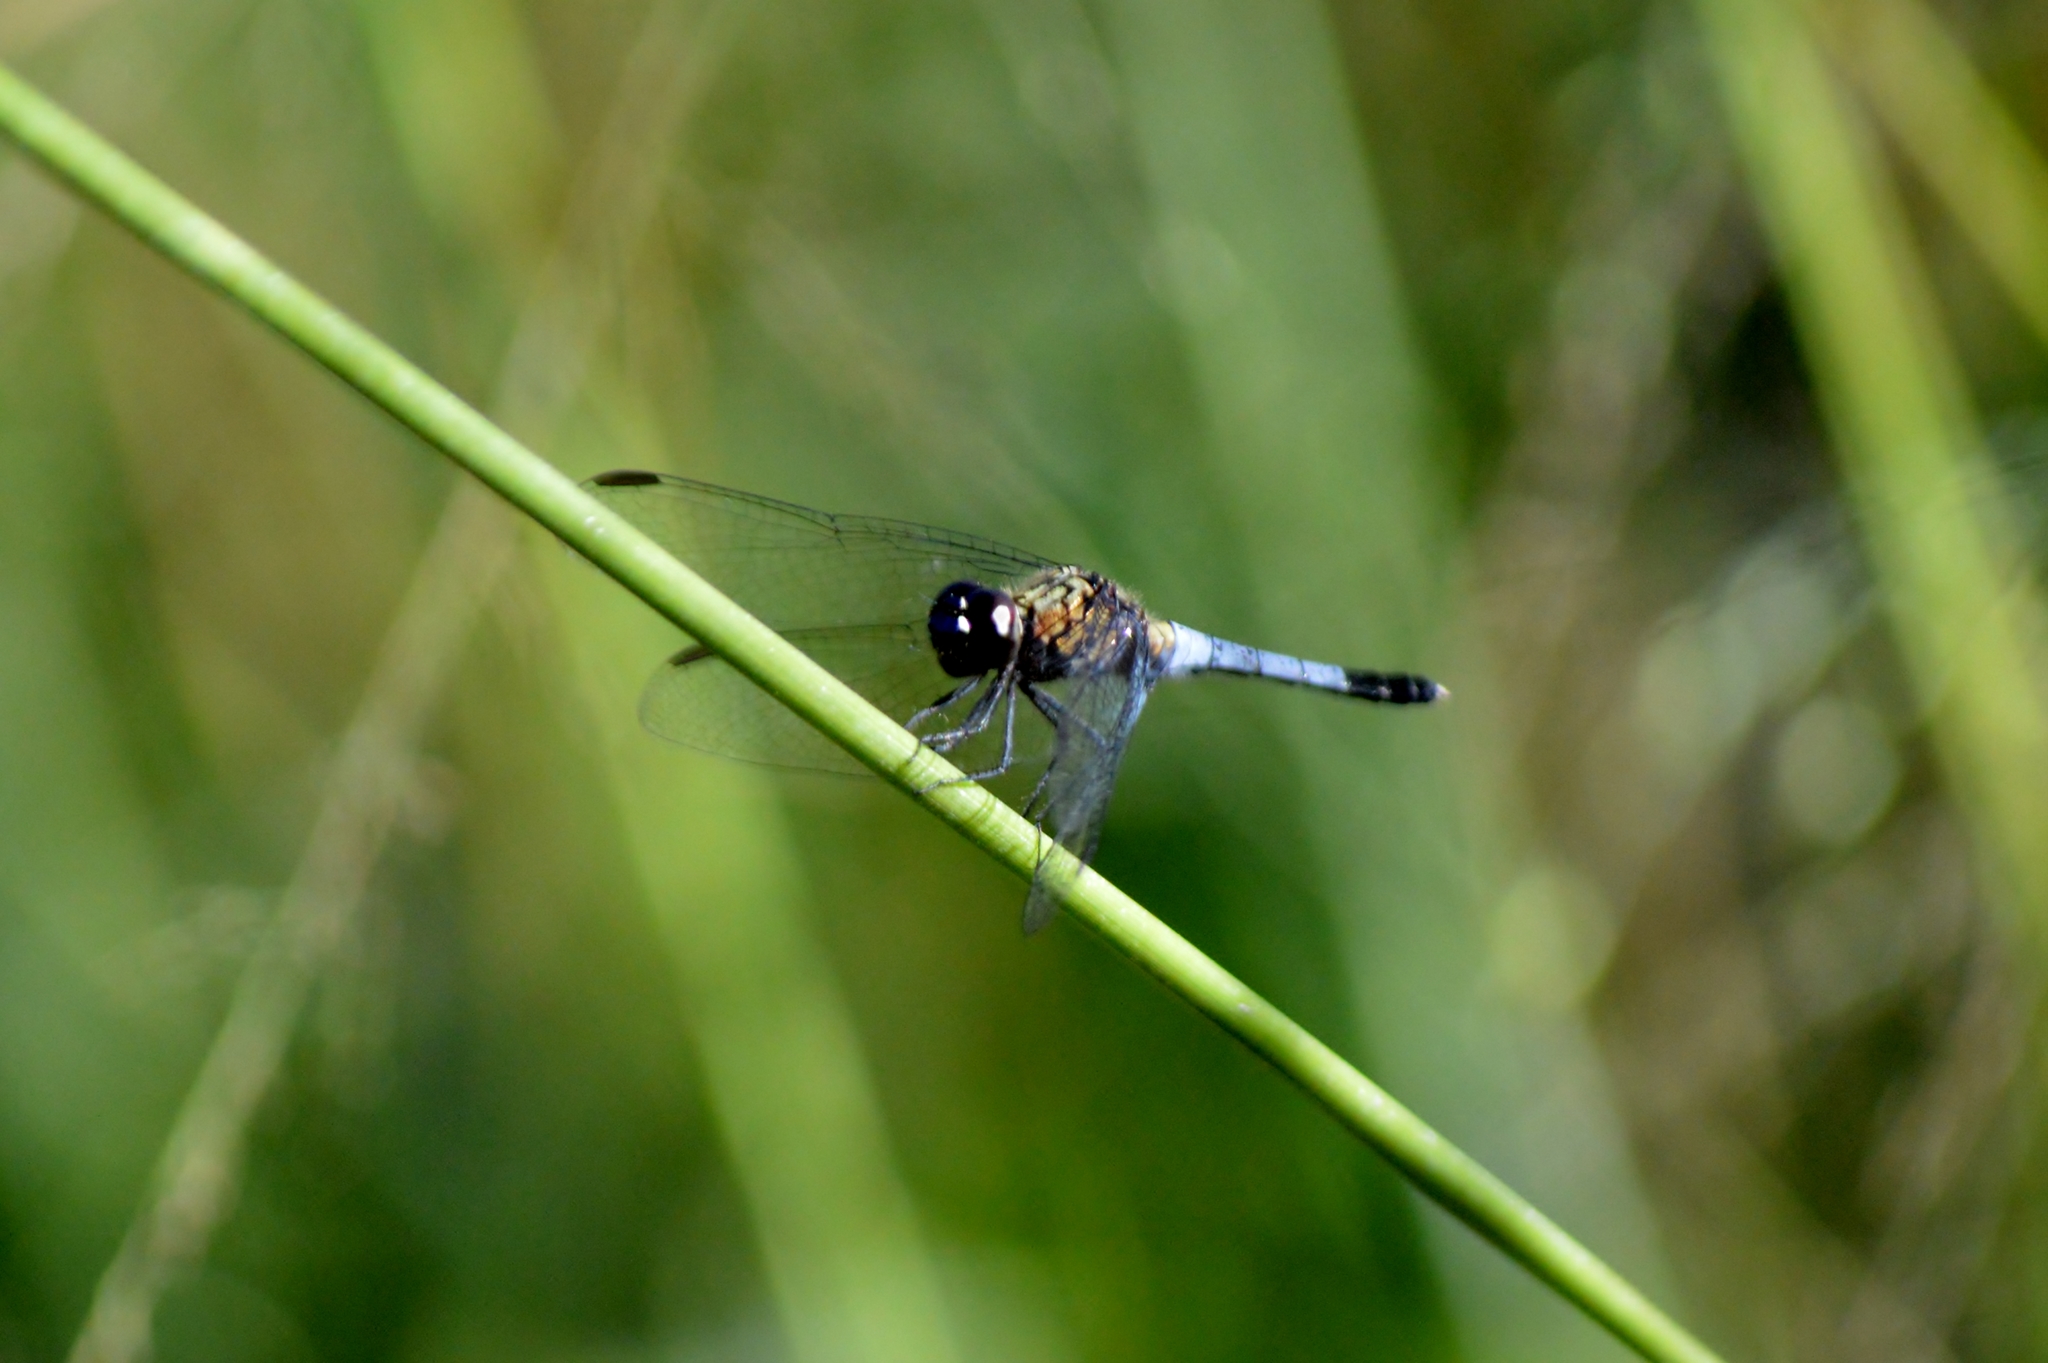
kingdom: Animalia
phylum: Arthropoda
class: Insecta
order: Odonata
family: Libellulidae
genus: Erythrodiplax
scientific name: Erythrodiplax avittata
